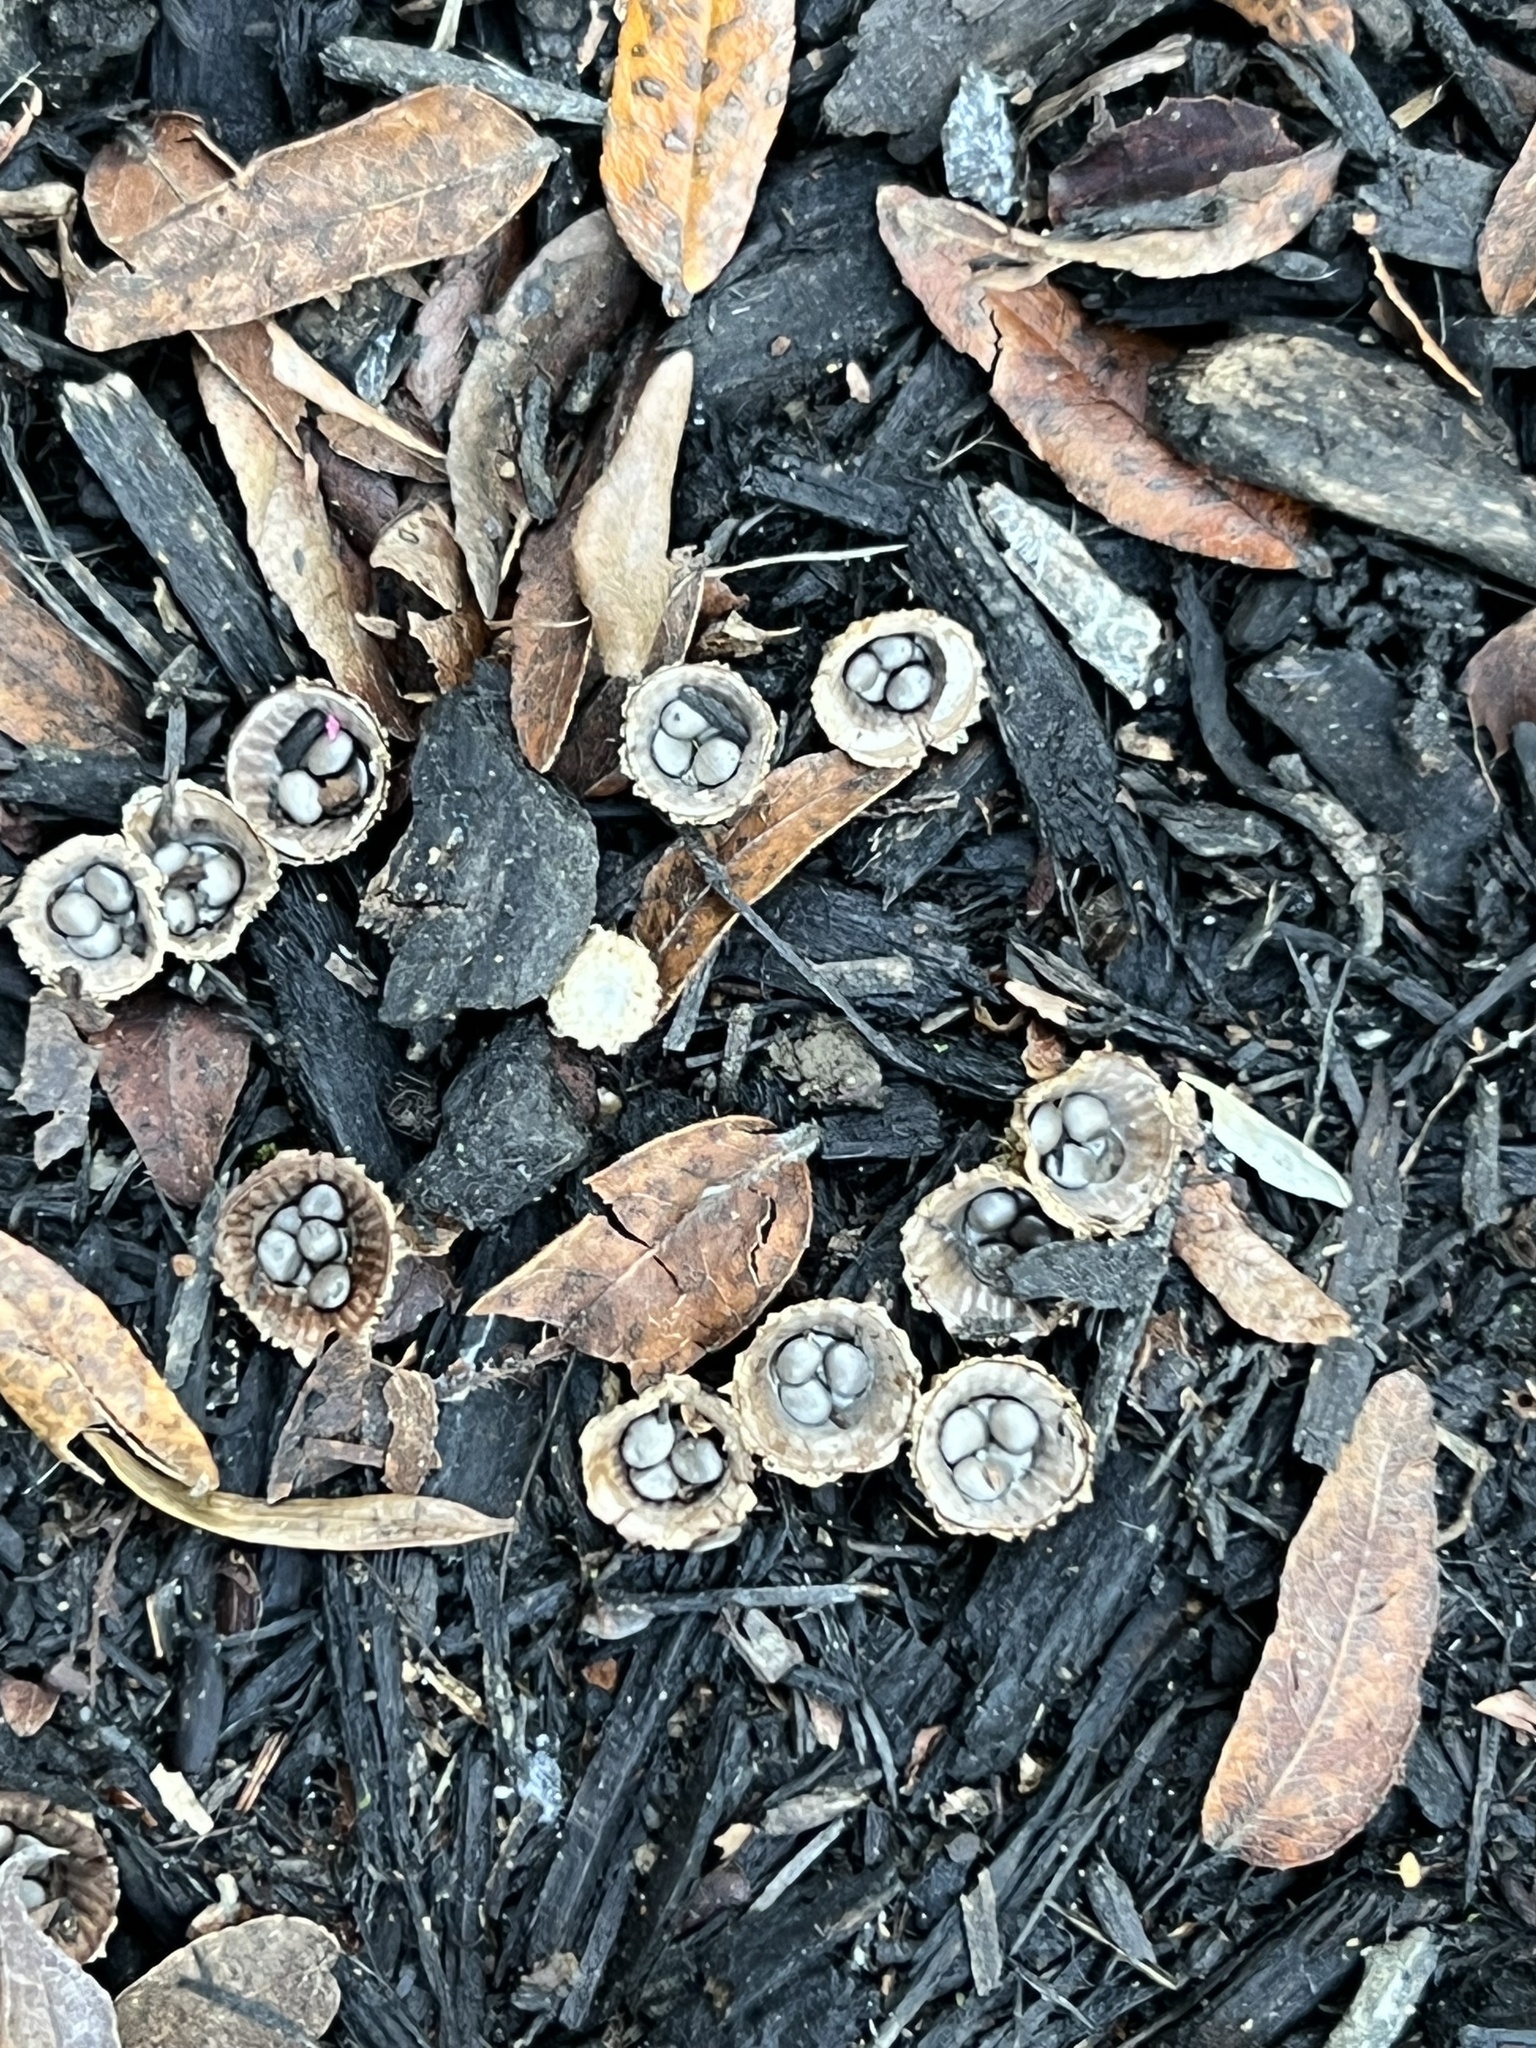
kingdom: Fungi
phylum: Basidiomycota
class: Agaricomycetes
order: Agaricales
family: Agaricaceae
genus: Cyathus
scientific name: Cyathus striatus
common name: Fluted bird's nest
